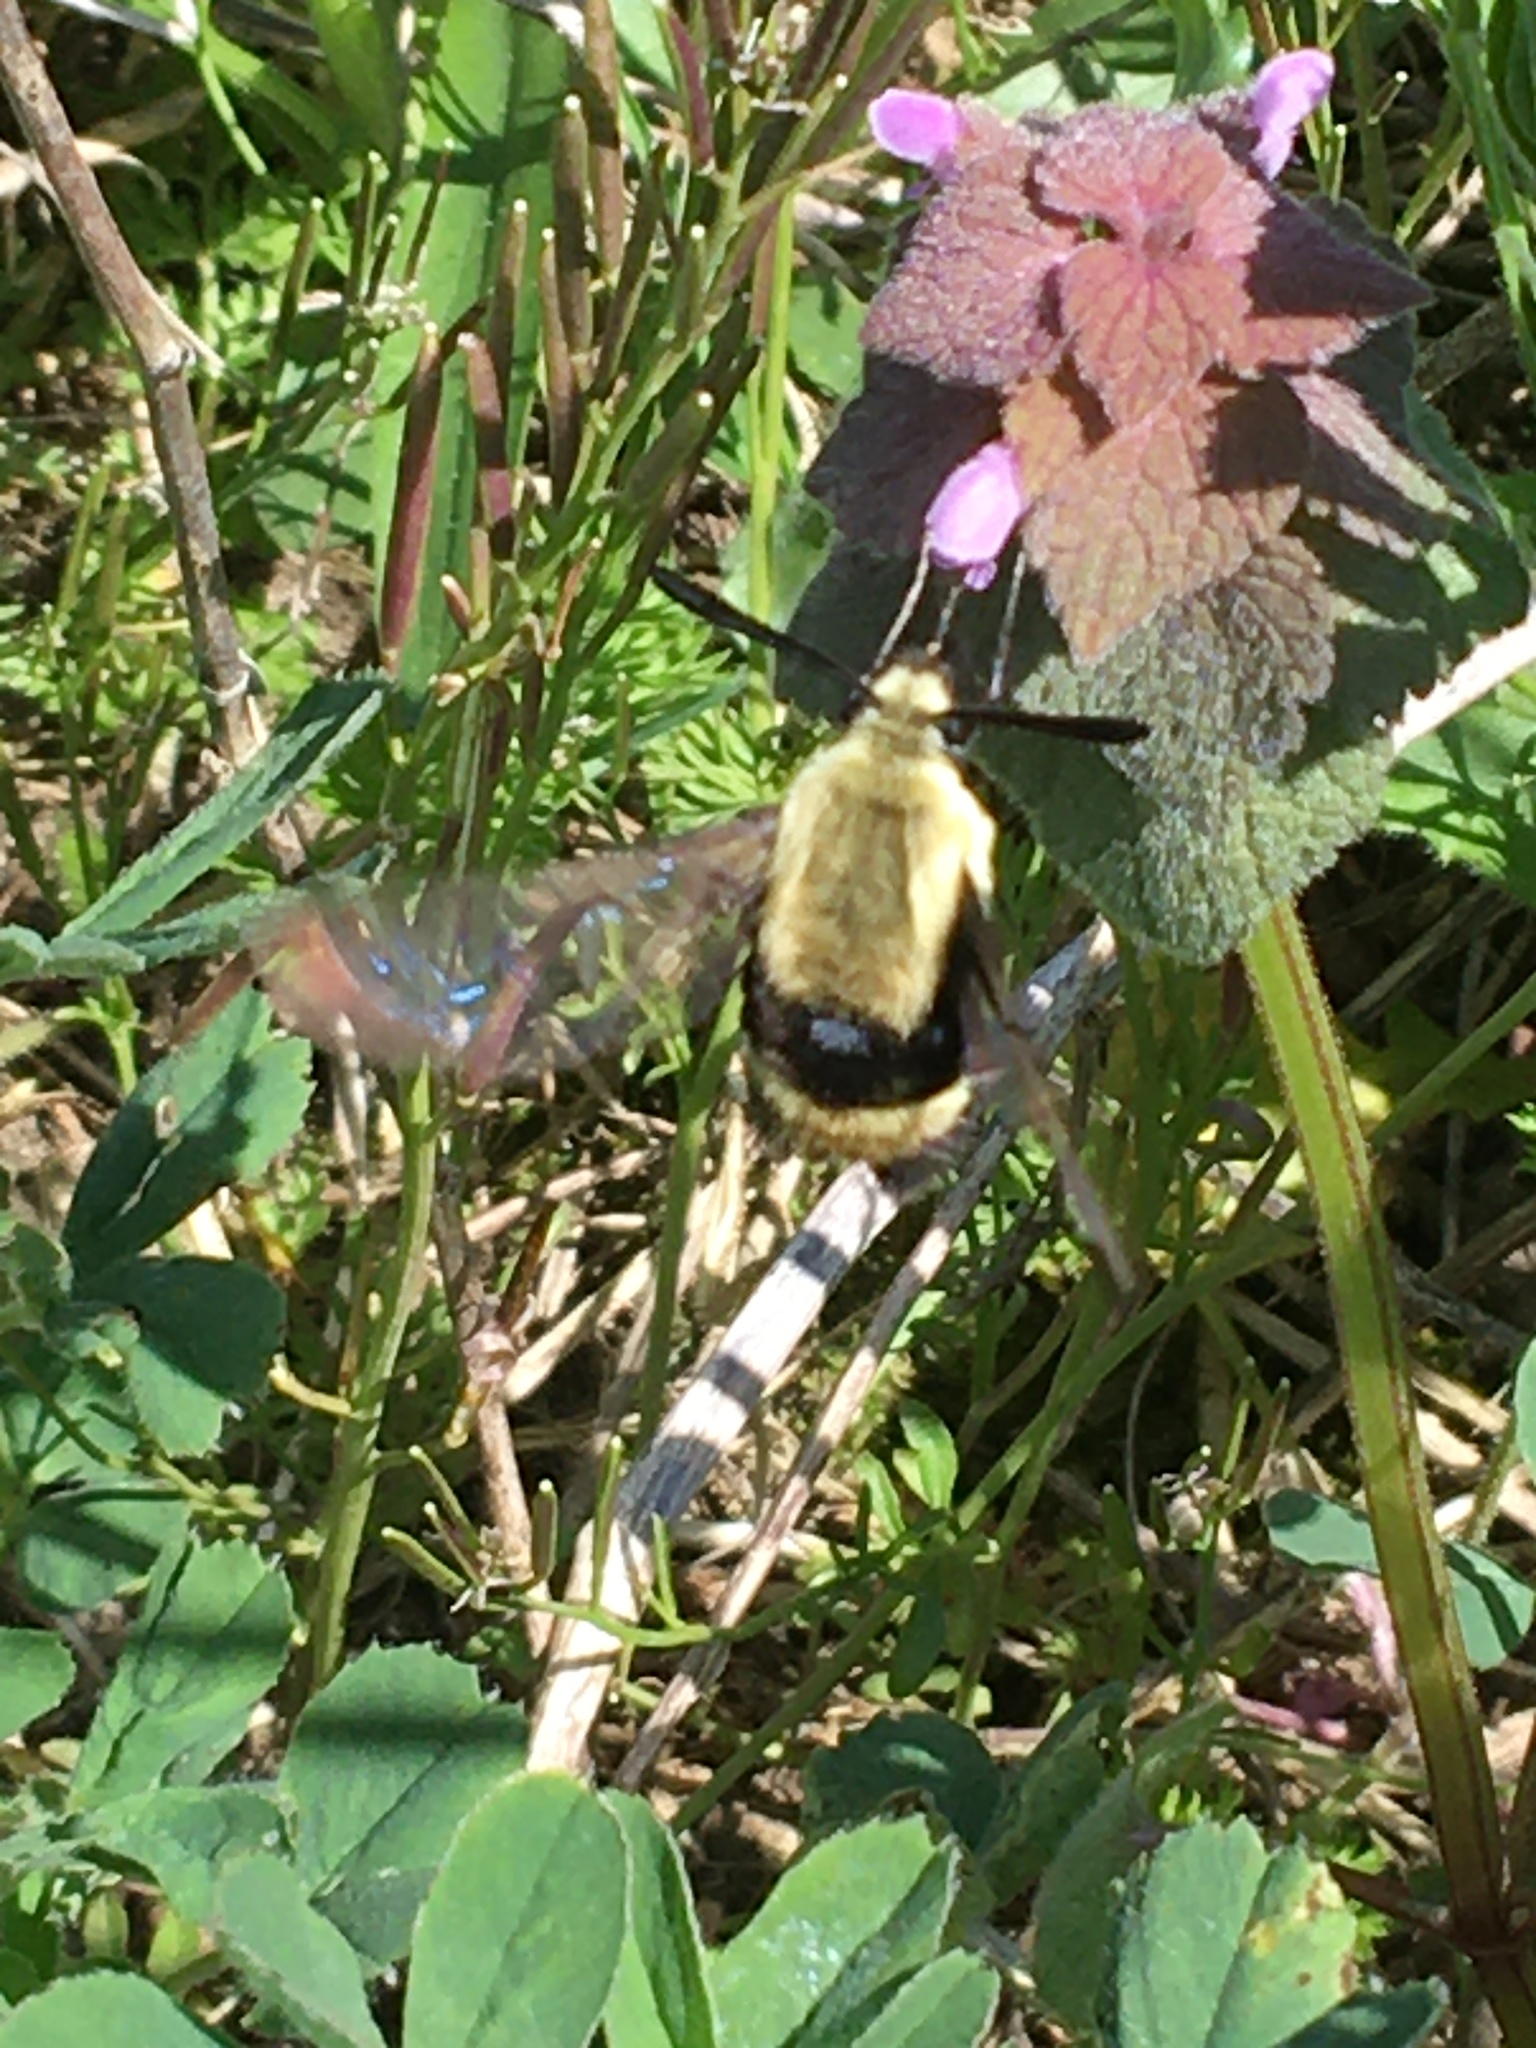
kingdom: Animalia
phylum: Arthropoda
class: Insecta
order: Lepidoptera
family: Sphingidae
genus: Hemaris
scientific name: Hemaris diffinis
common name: Bumblebee moth
